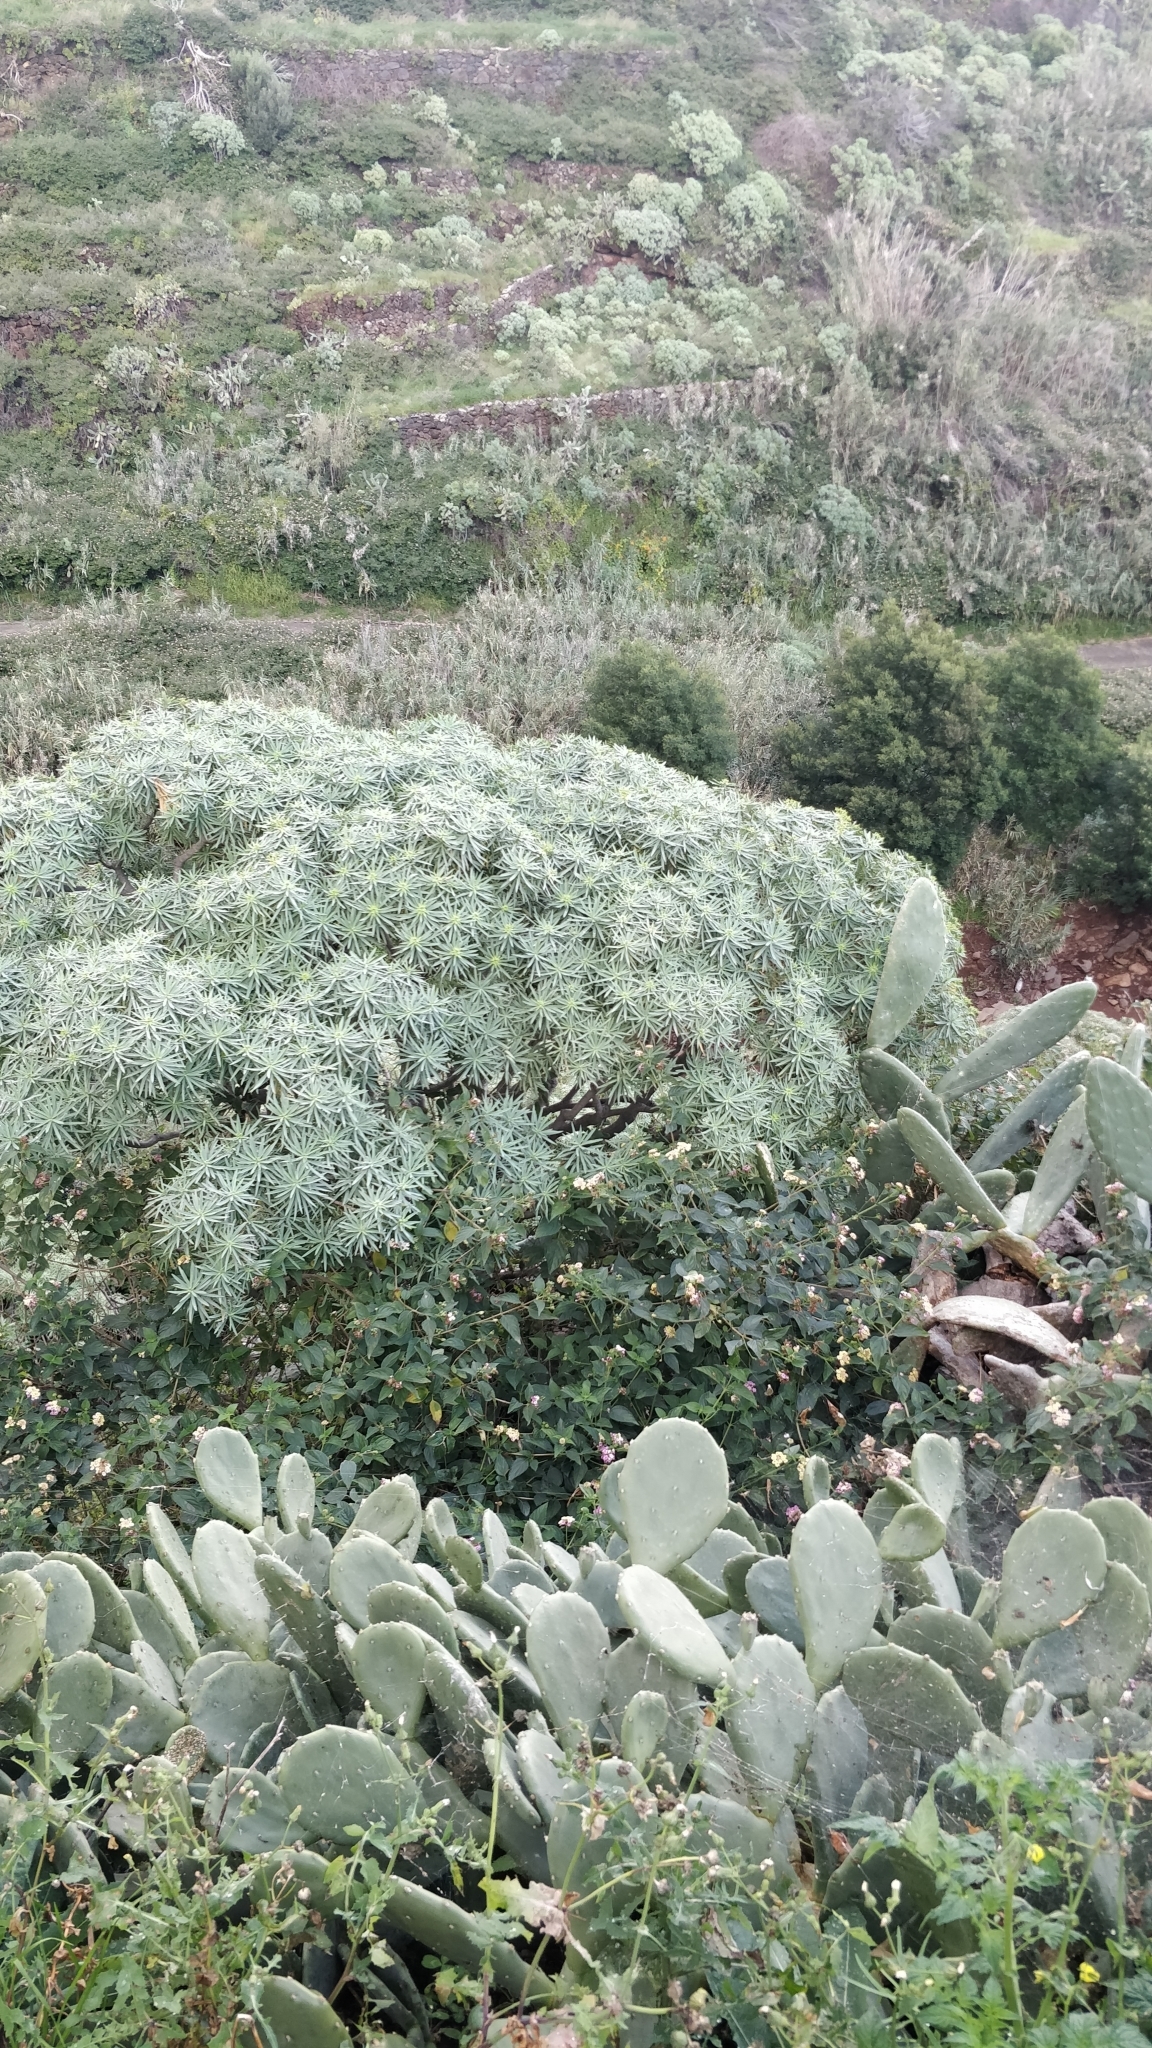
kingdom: Plantae
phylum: Tracheophyta
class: Magnoliopsida
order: Malpighiales
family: Euphorbiaceae
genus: Euphorbia
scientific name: Euphorbia piscatoria
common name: Fish-stunning spurge
